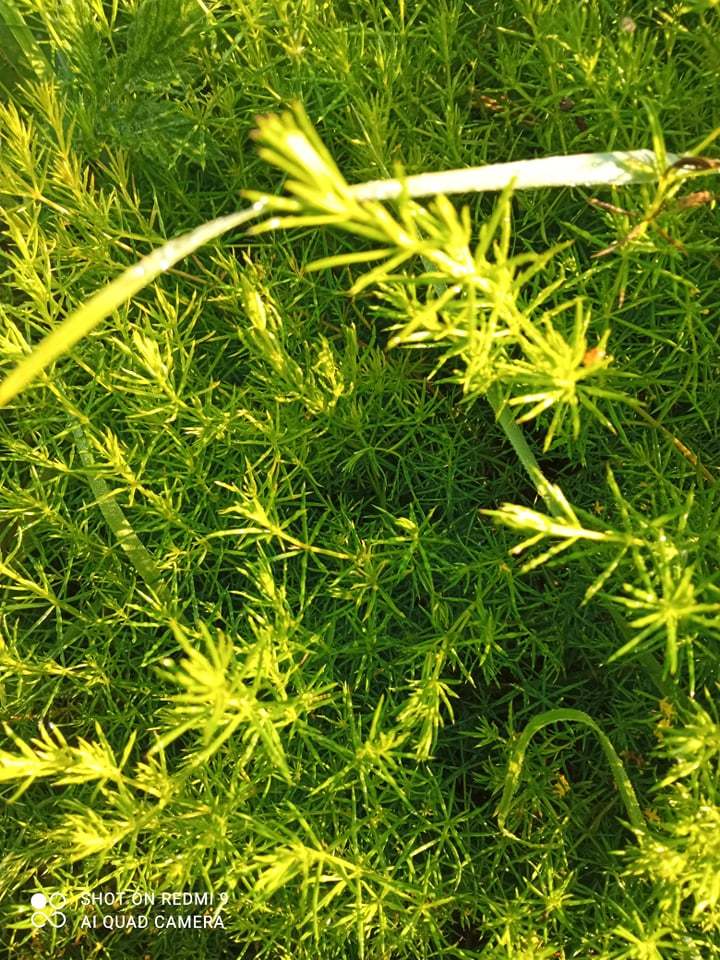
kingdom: Plantae
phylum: Tracheophyta
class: Magnoliopsida
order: Gentianales
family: Rubiaceae
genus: Galium
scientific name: Galium verum
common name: Lady's bedstraw
